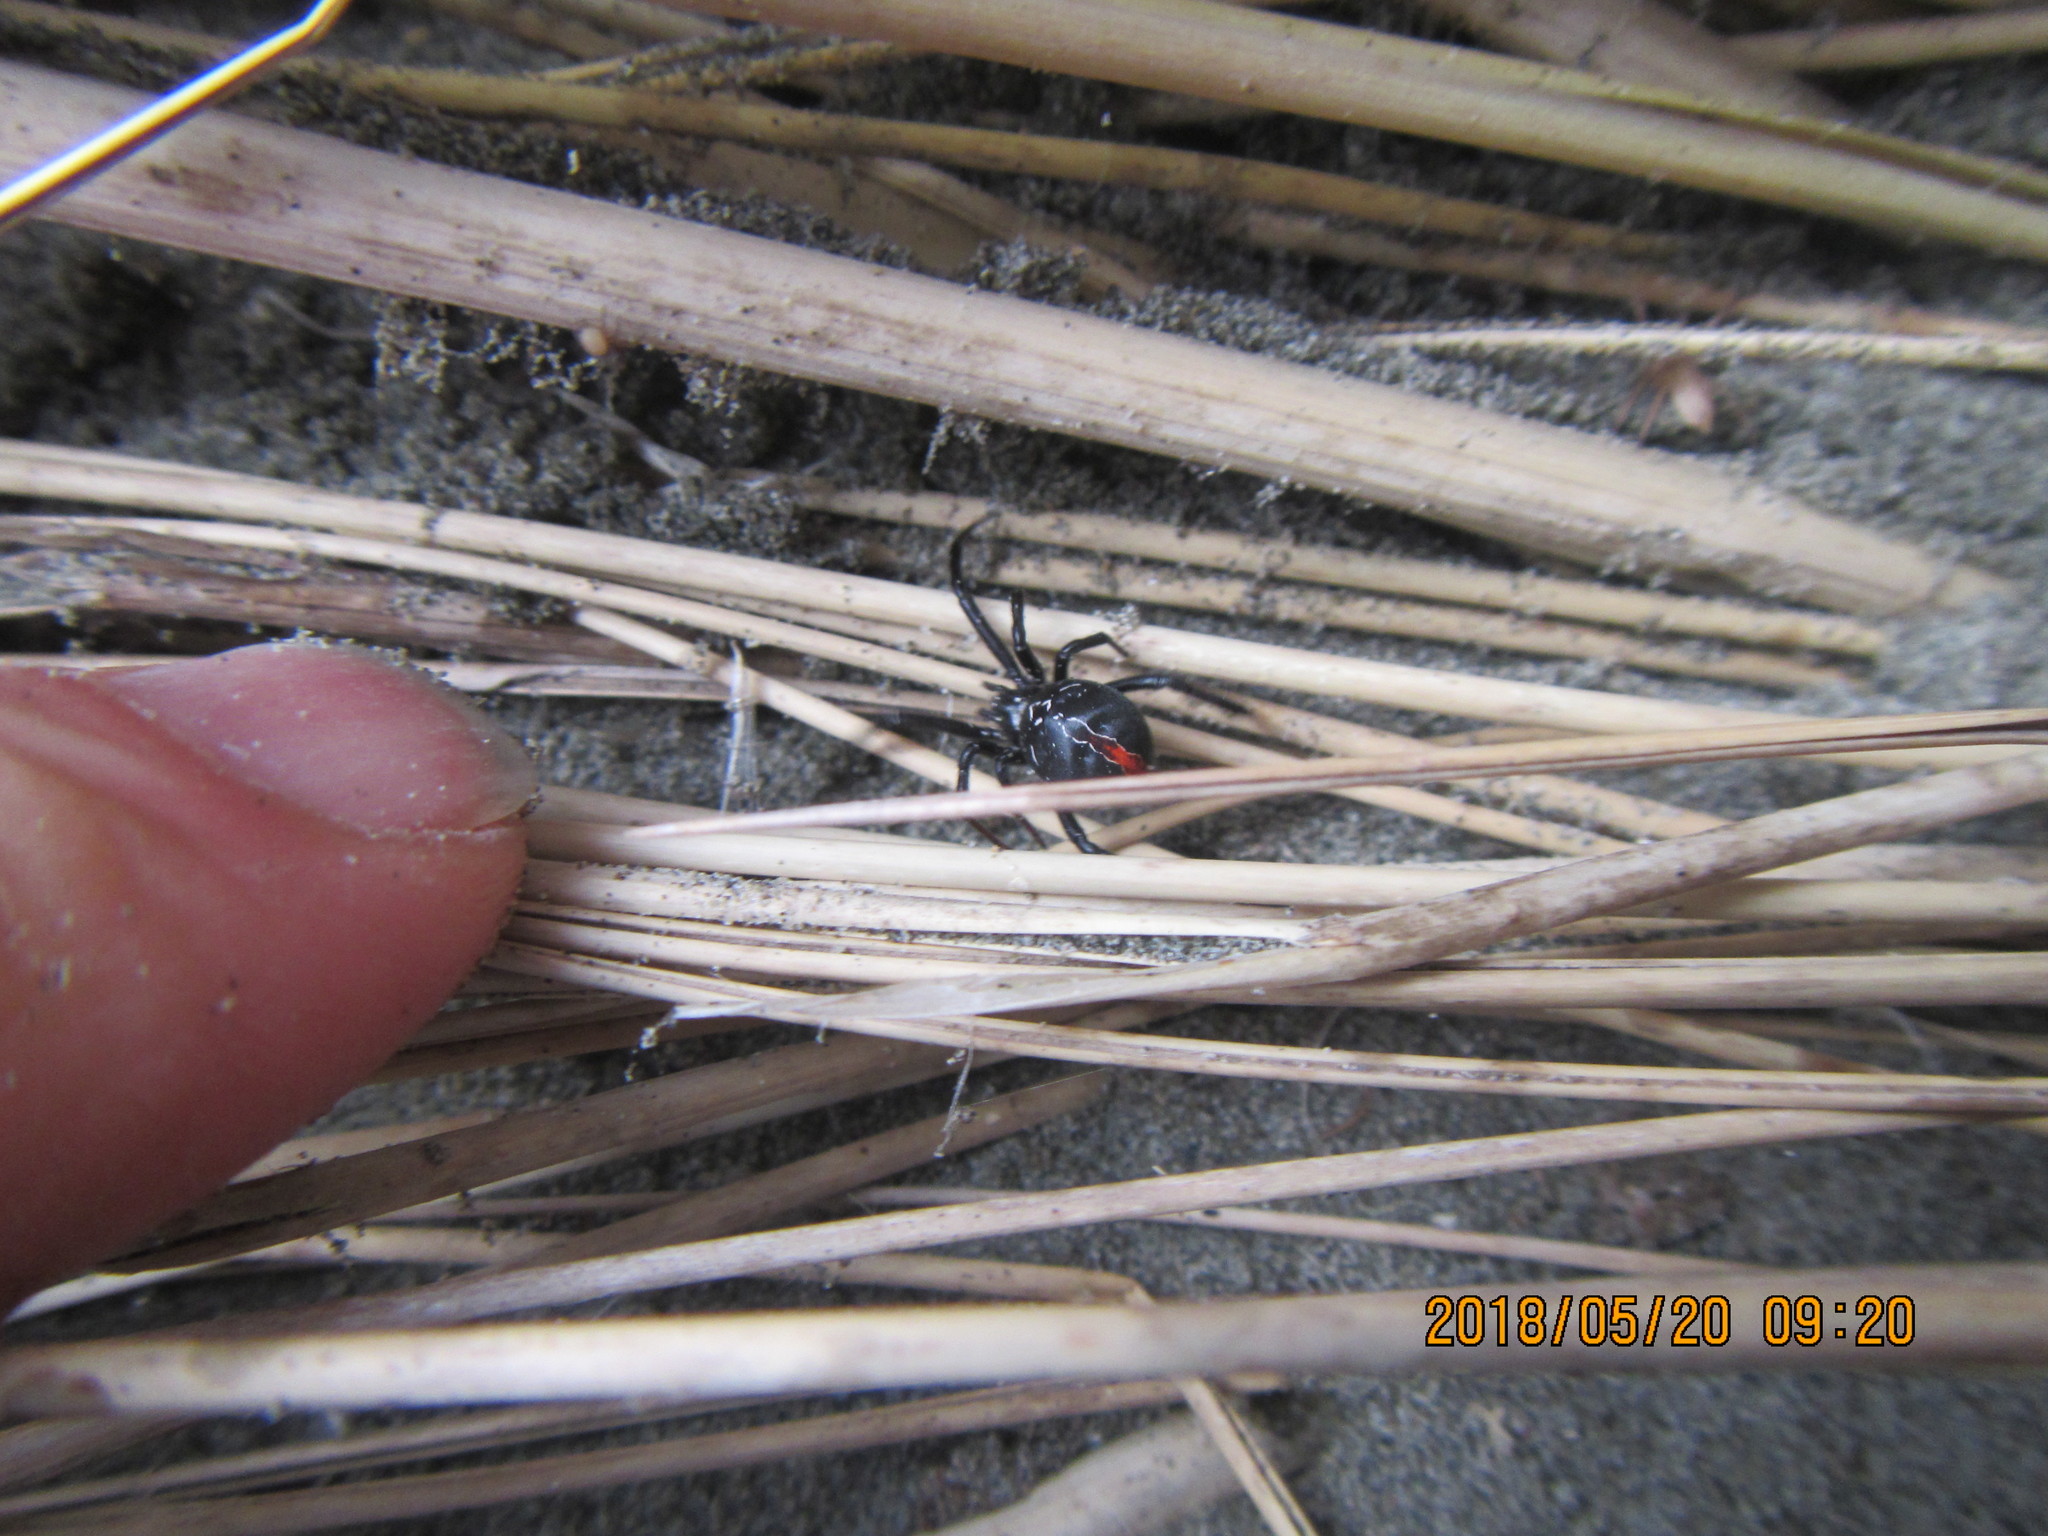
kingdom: Animalia
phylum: Arthropoda
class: Arachnida
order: Araneae
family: Theridiidae
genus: Latrodectus
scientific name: Latrodectus katipo
